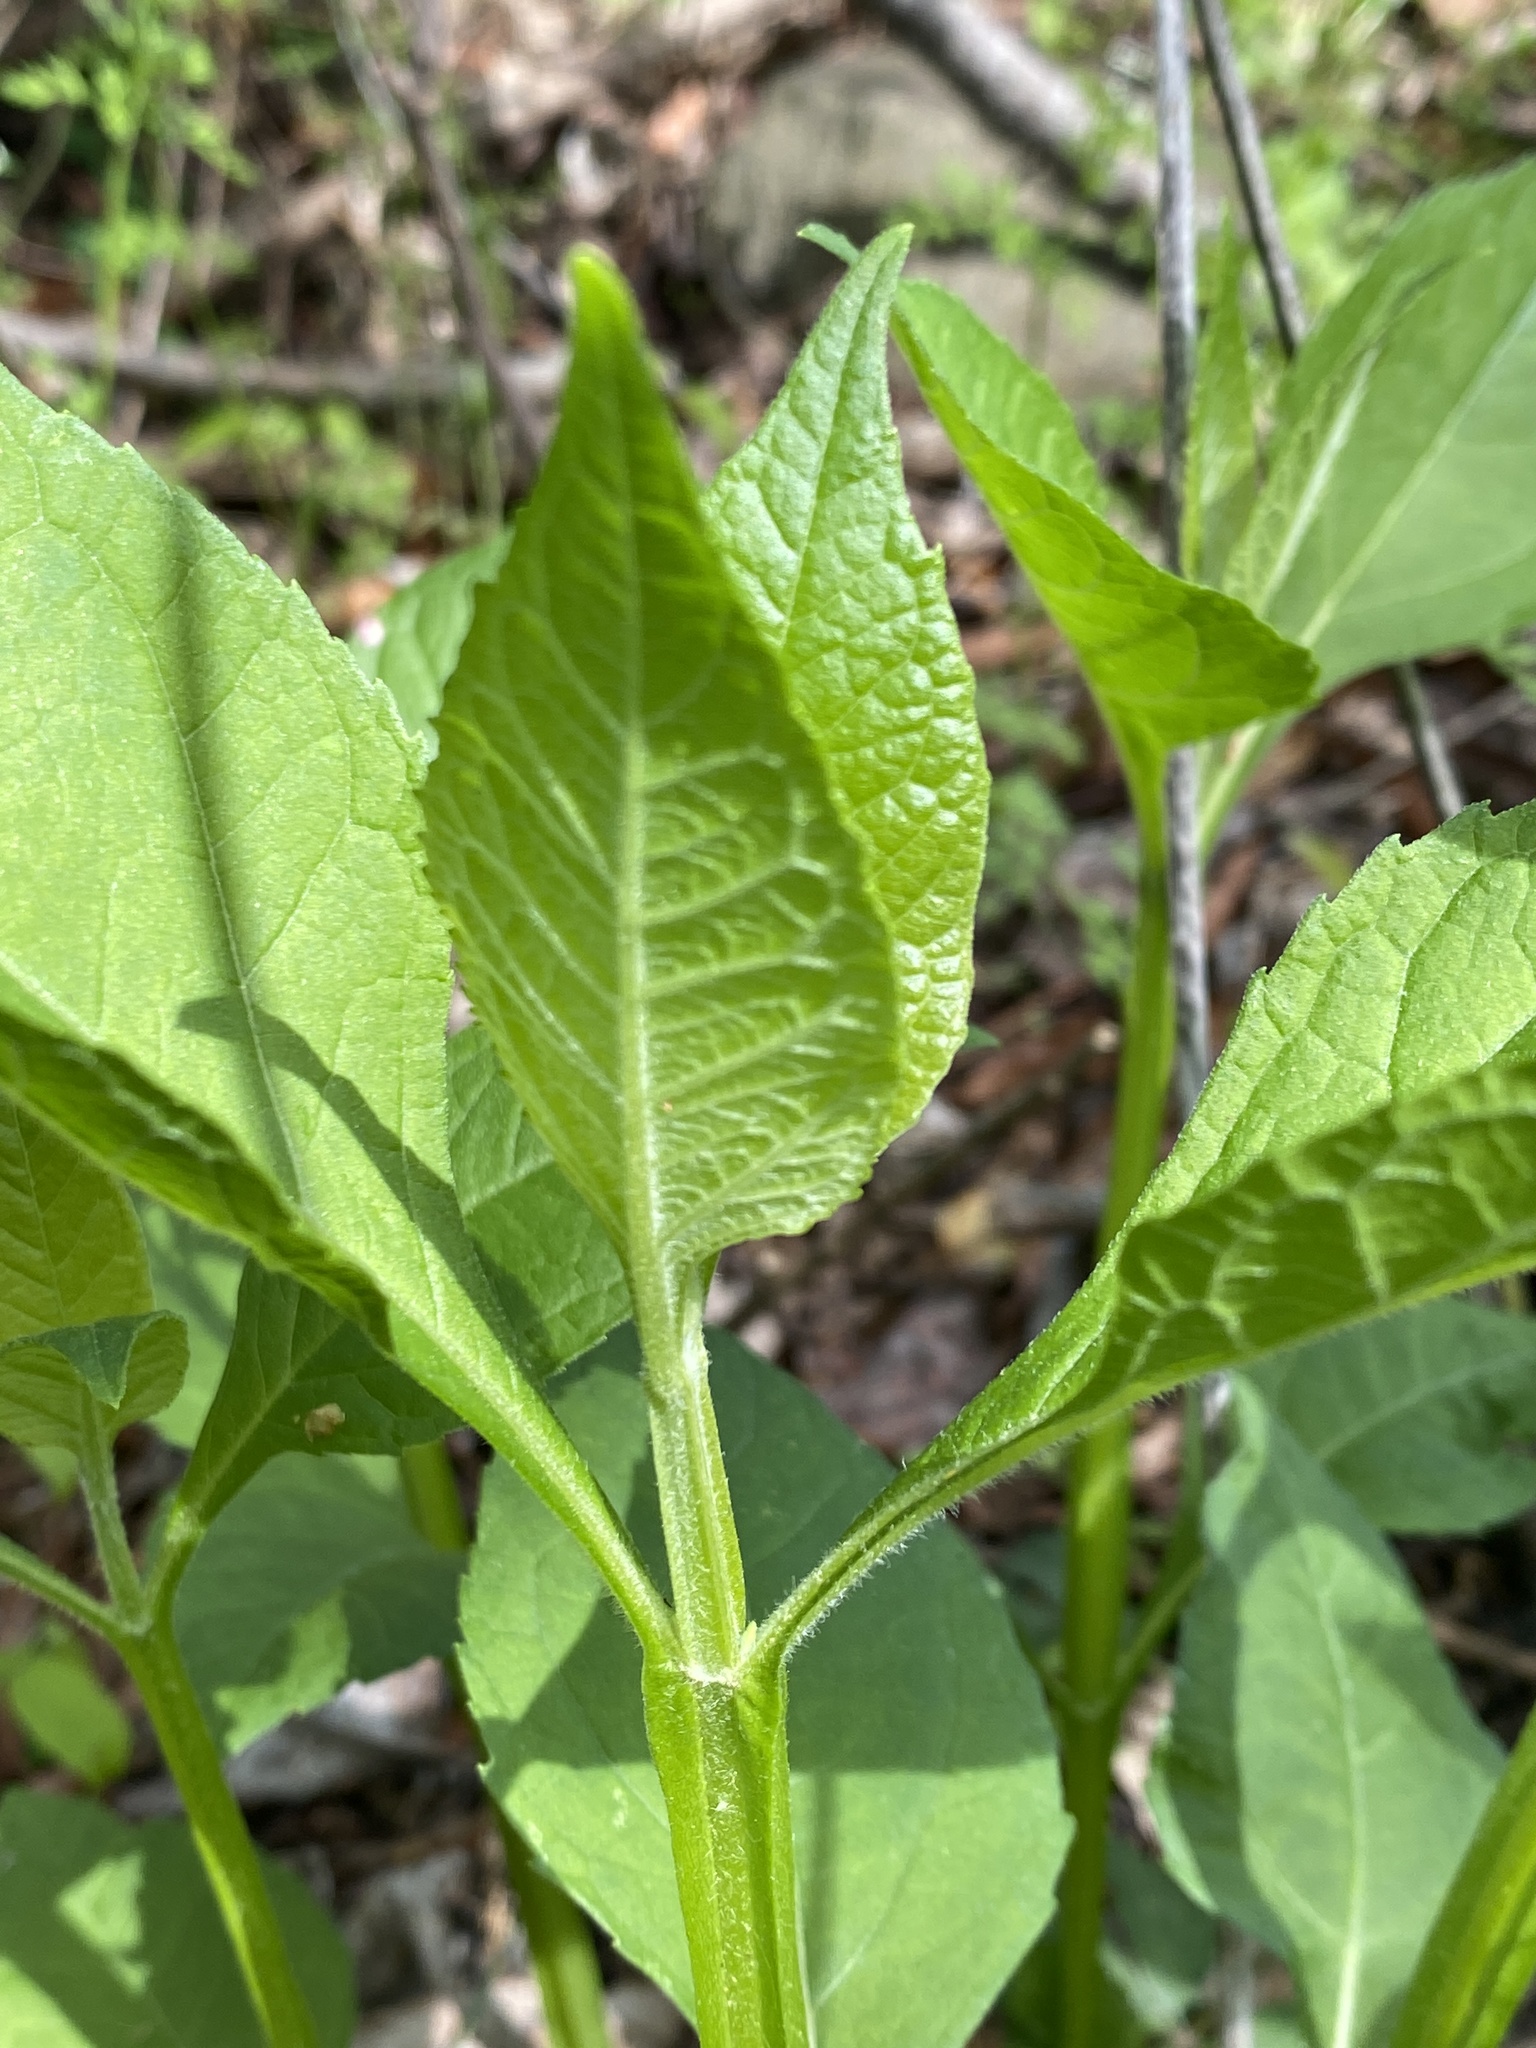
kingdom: Plantae
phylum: Tracheophyta
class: Magnoliopsida
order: Asterales
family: Asteraceae
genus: Verbesina
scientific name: Verbesina occidentalis
